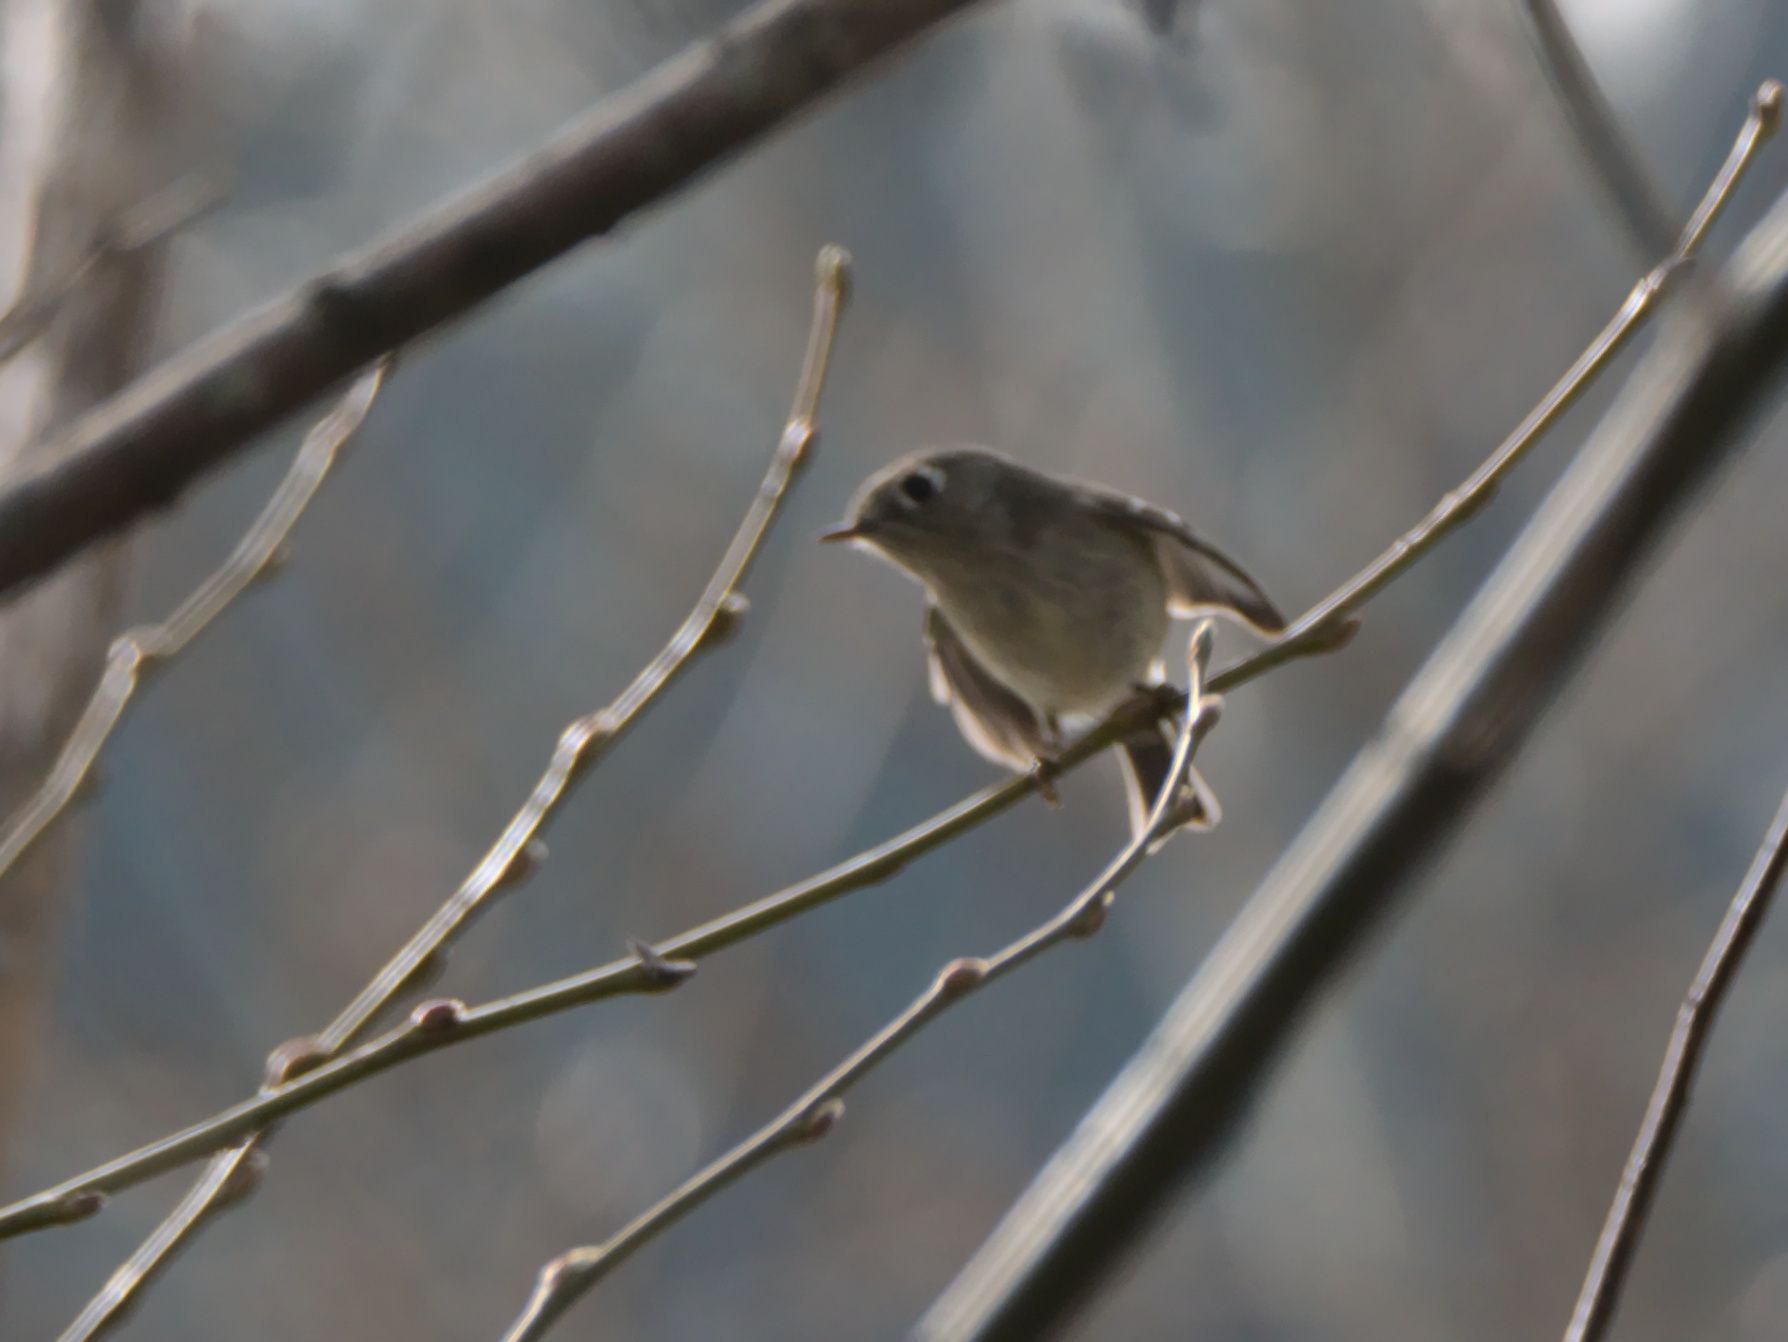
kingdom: Animalia
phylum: Chordata
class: Aves
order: Passeriformes
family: Regulidae
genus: Regulus
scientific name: Regulus calendula
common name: Ruby-crowned kinglet
